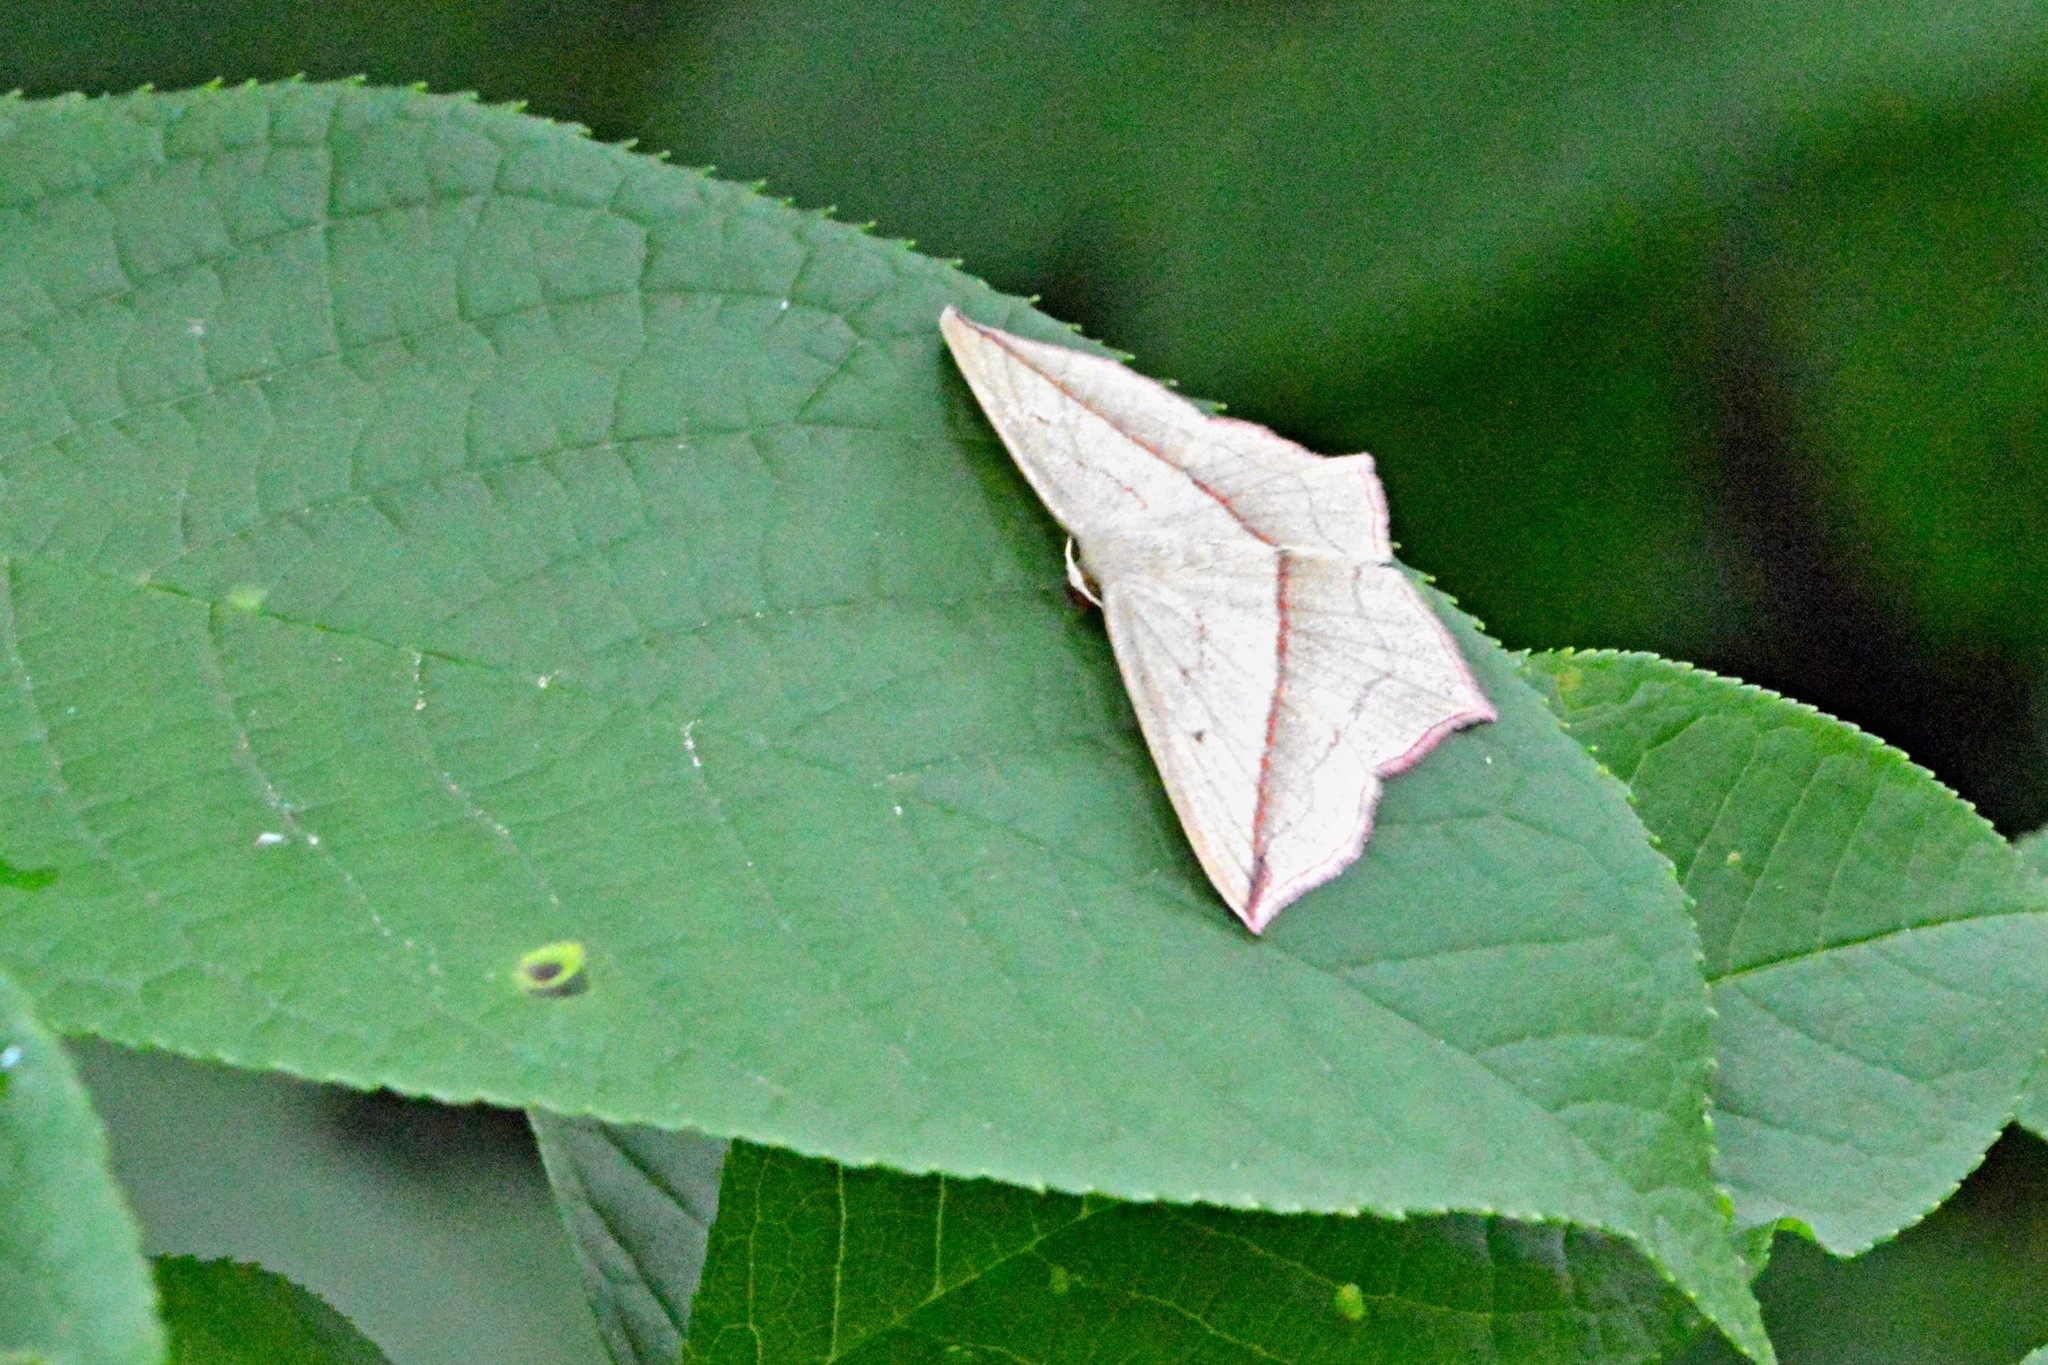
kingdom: Animalia
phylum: Arthropoda
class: Insecta
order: Lepidoptera
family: Geometridae
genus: Timandra
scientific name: Timandra comae
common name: Blood-vein
